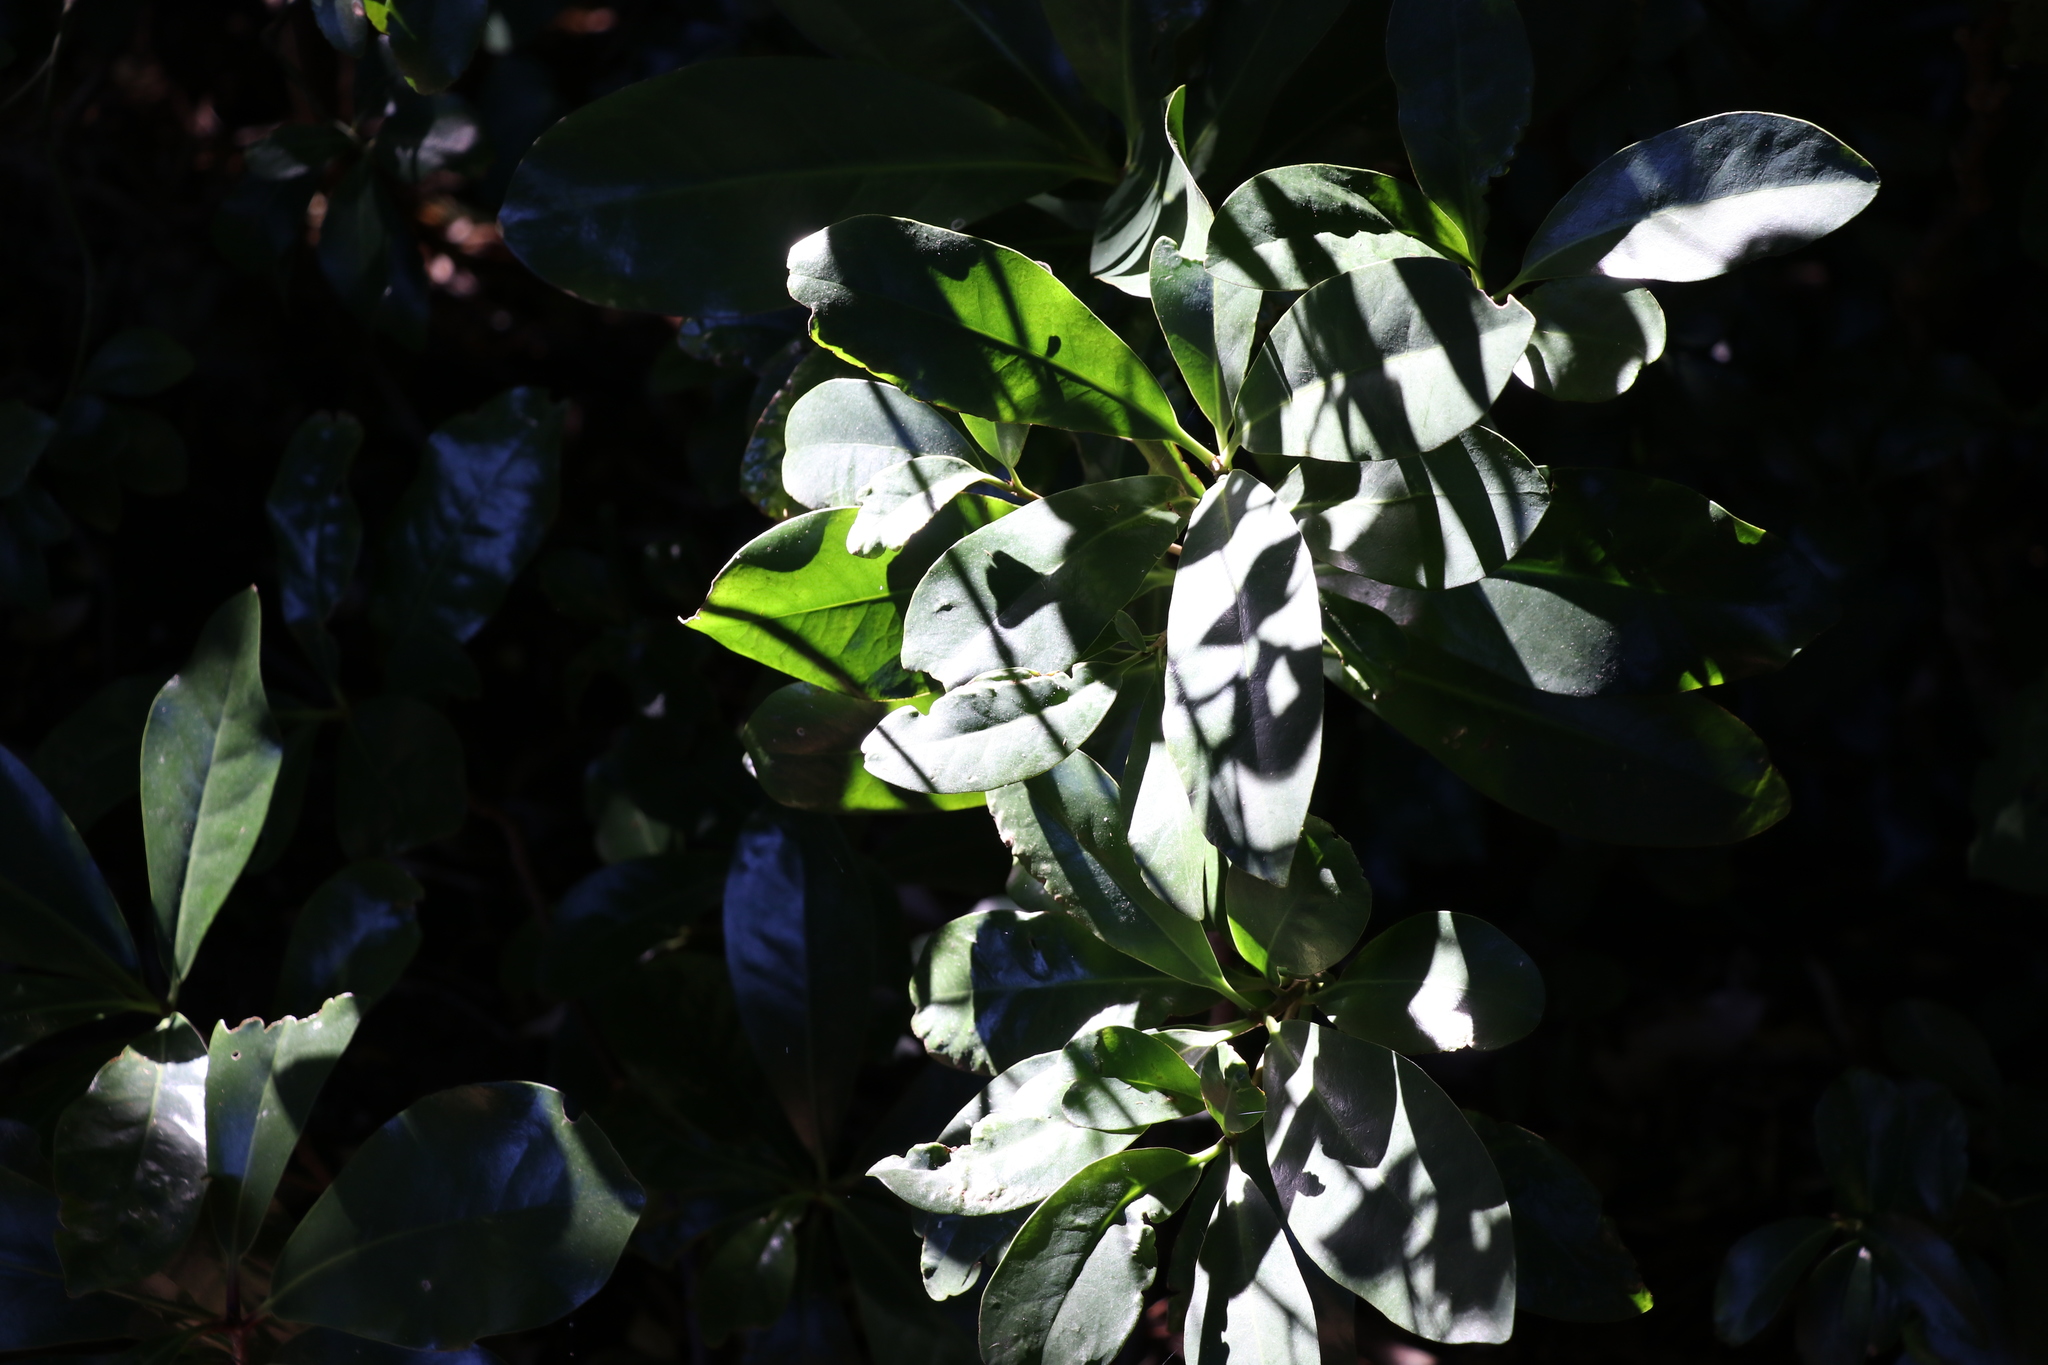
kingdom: Plantae
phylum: Tracheophyta
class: Magnoliopsida
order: Cucurbitales
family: Corynocarpaceae
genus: Corynocarpus
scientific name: Corynocarpus laevigatus
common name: New zealand laurel
